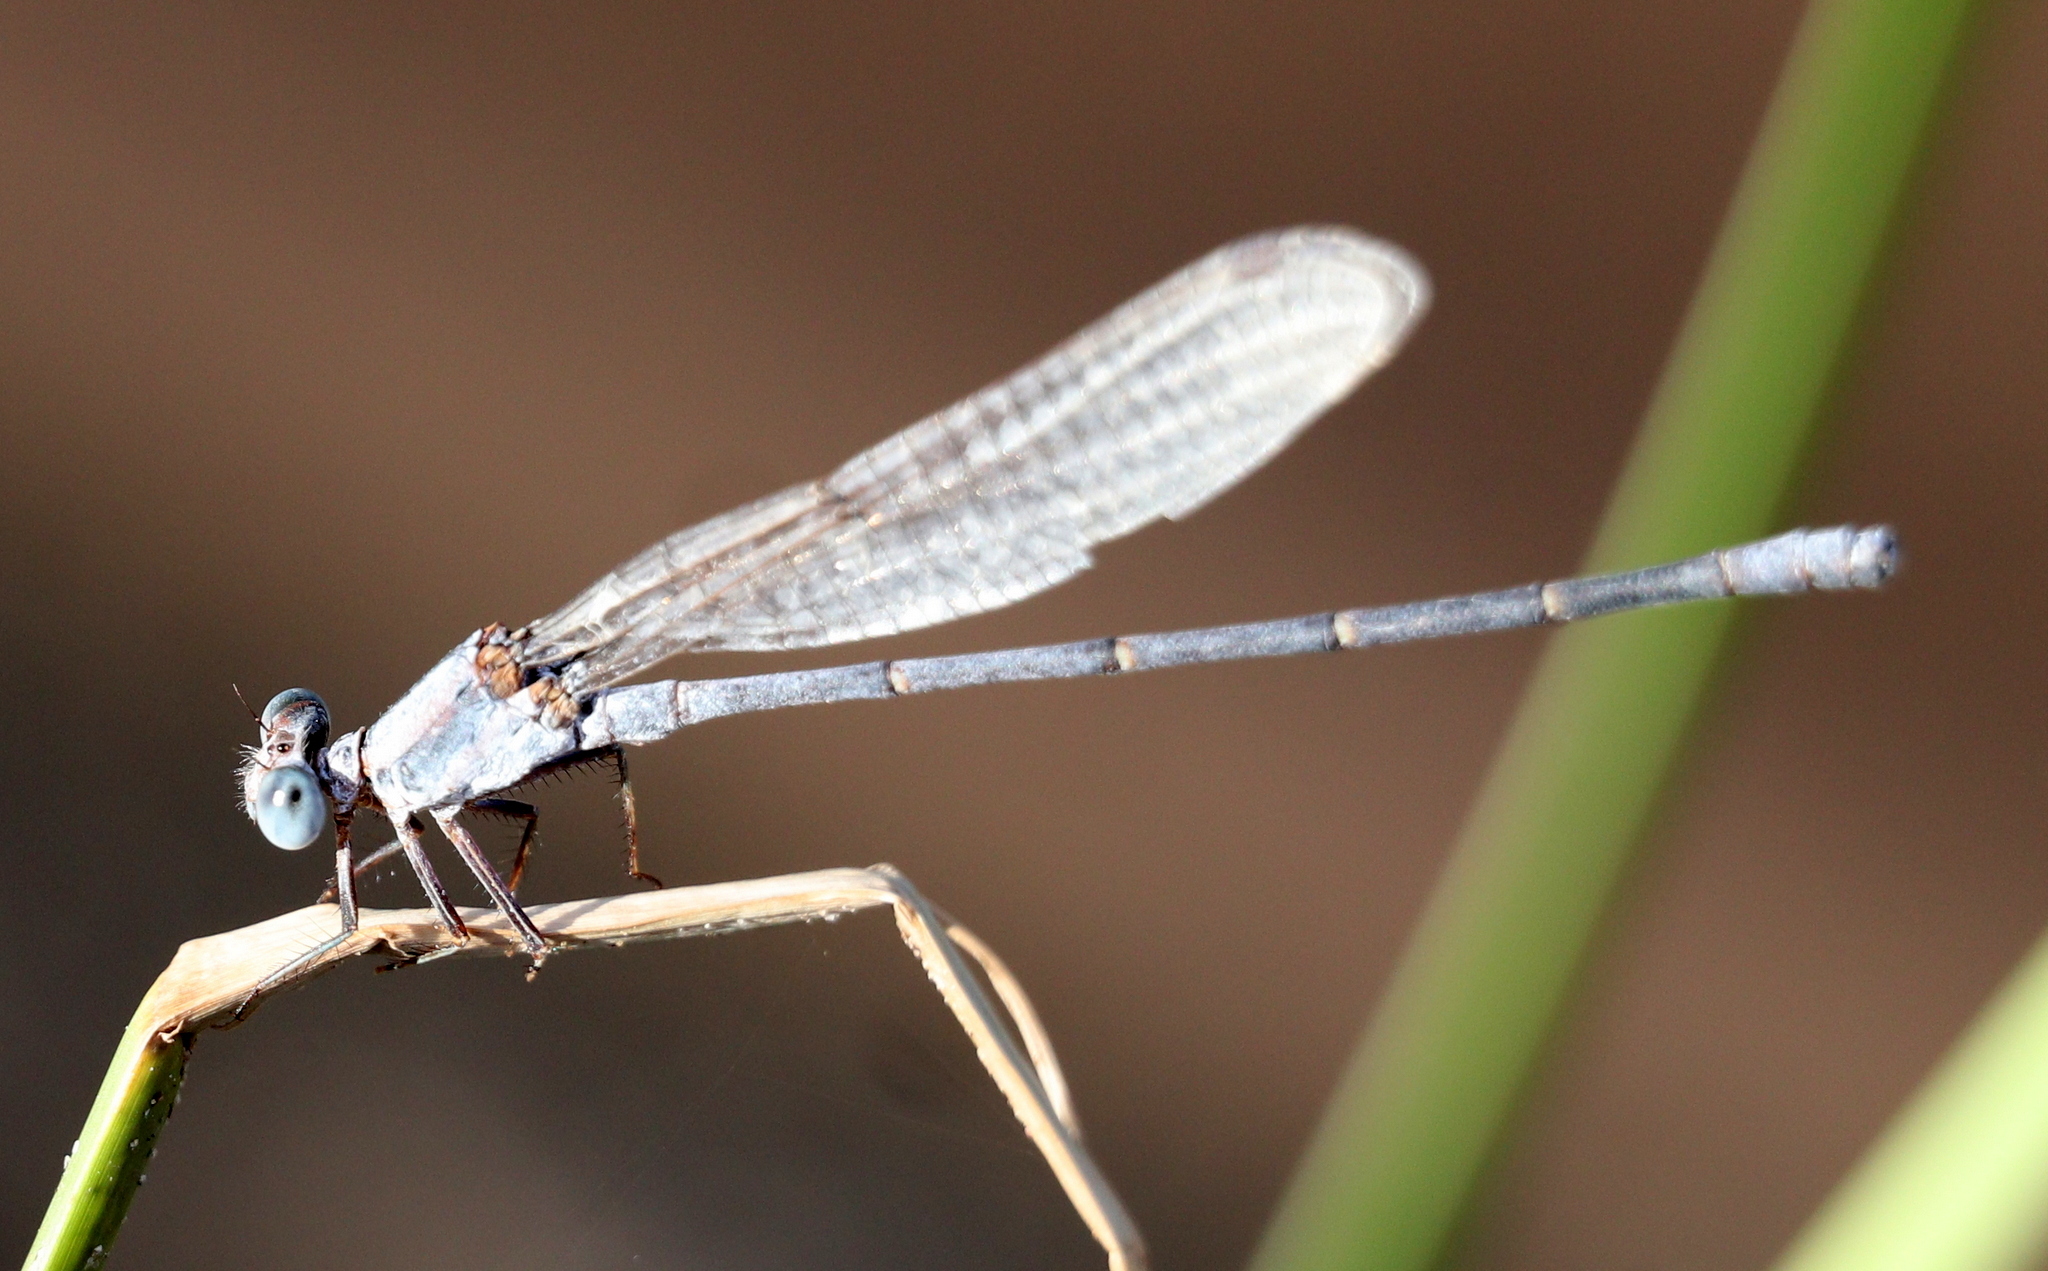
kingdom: Animalia
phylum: Arthropoda
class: Insecta
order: Odonata
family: Coenagrionidae
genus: Argia
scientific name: Argia moesta
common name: Powdered dancer
